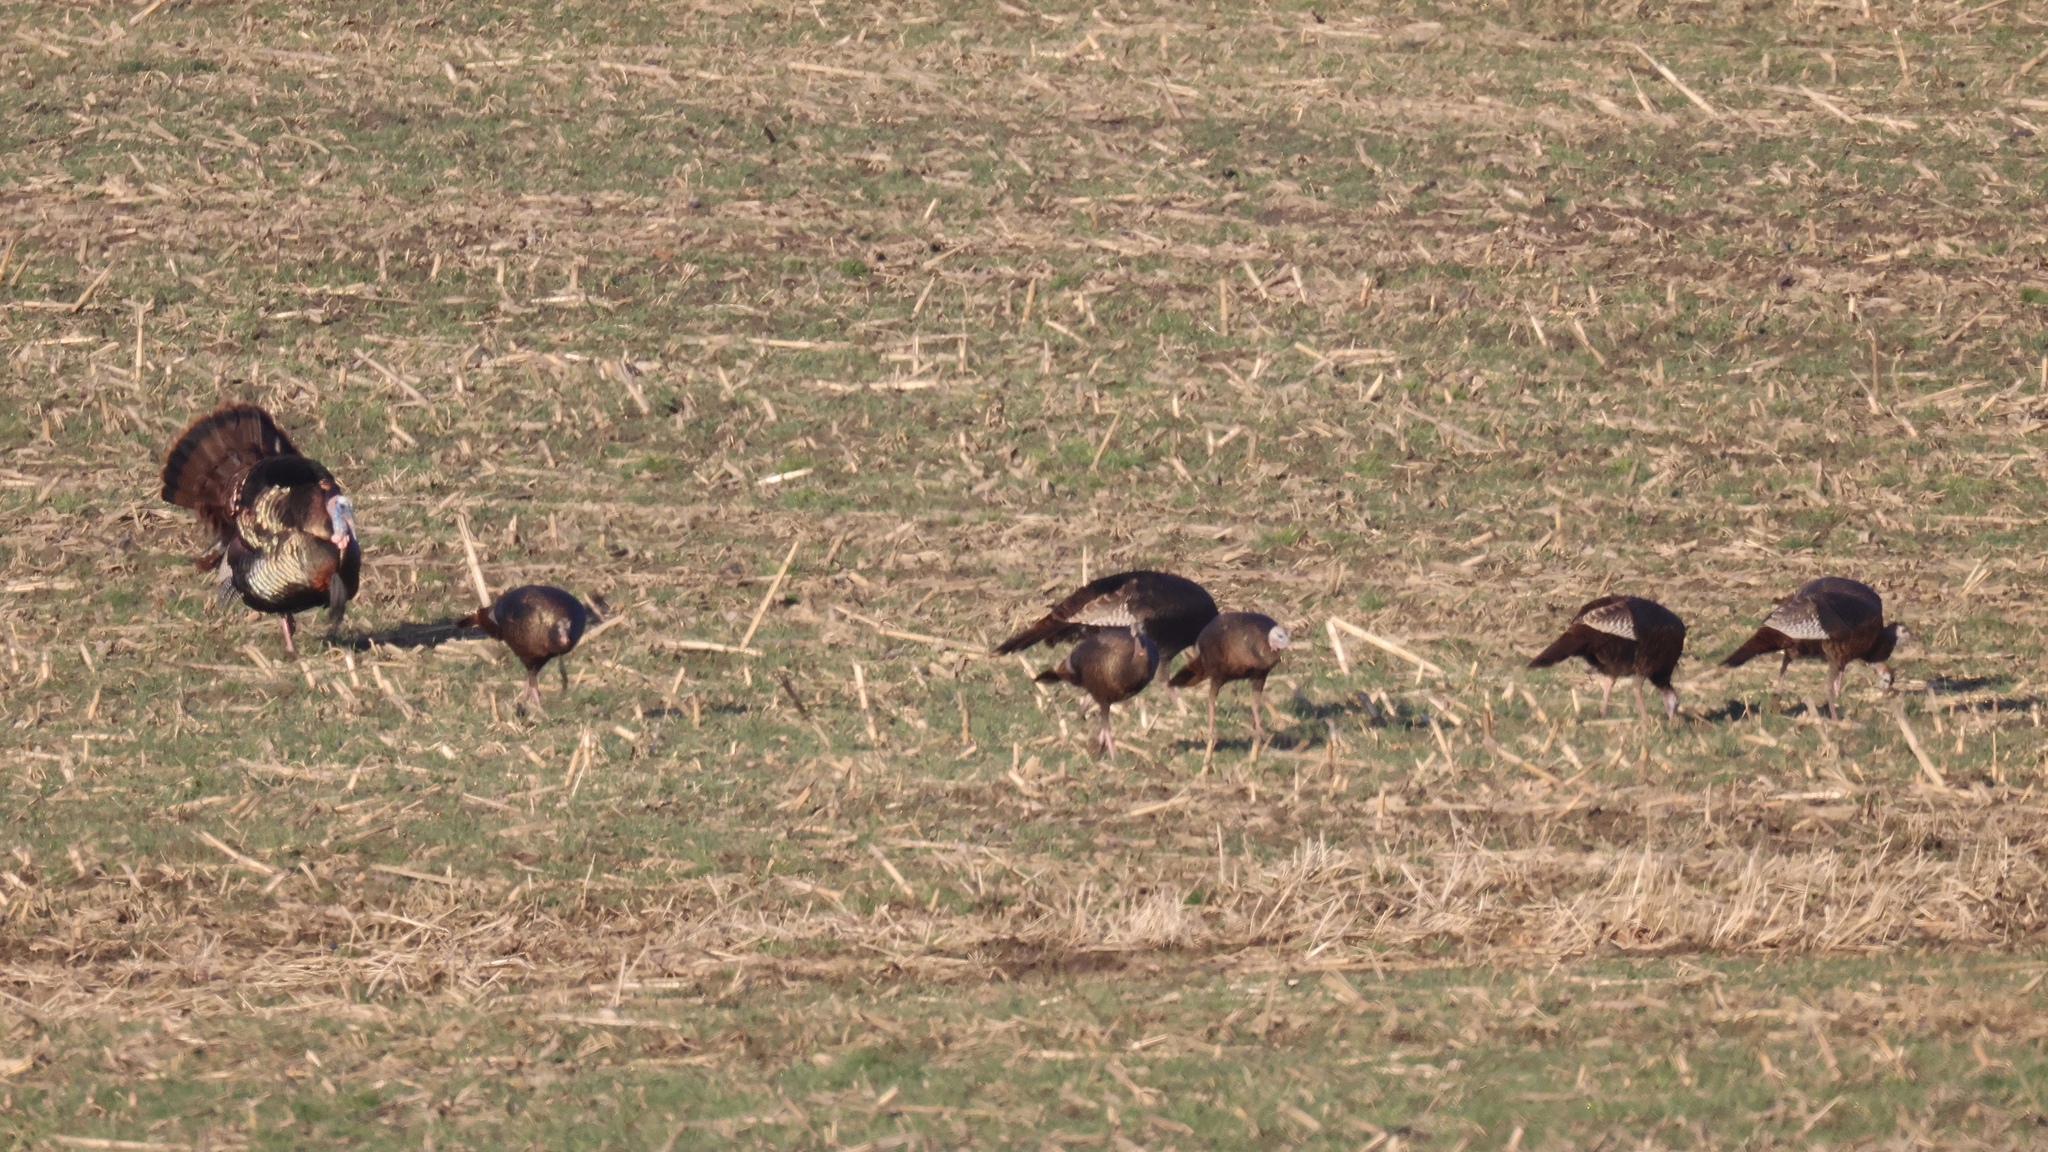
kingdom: Animalia
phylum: Chordata
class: Aves
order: Galliformes
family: Phasianidae
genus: Meleagris
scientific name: Meleagris gallopavo
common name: Wild turkey
